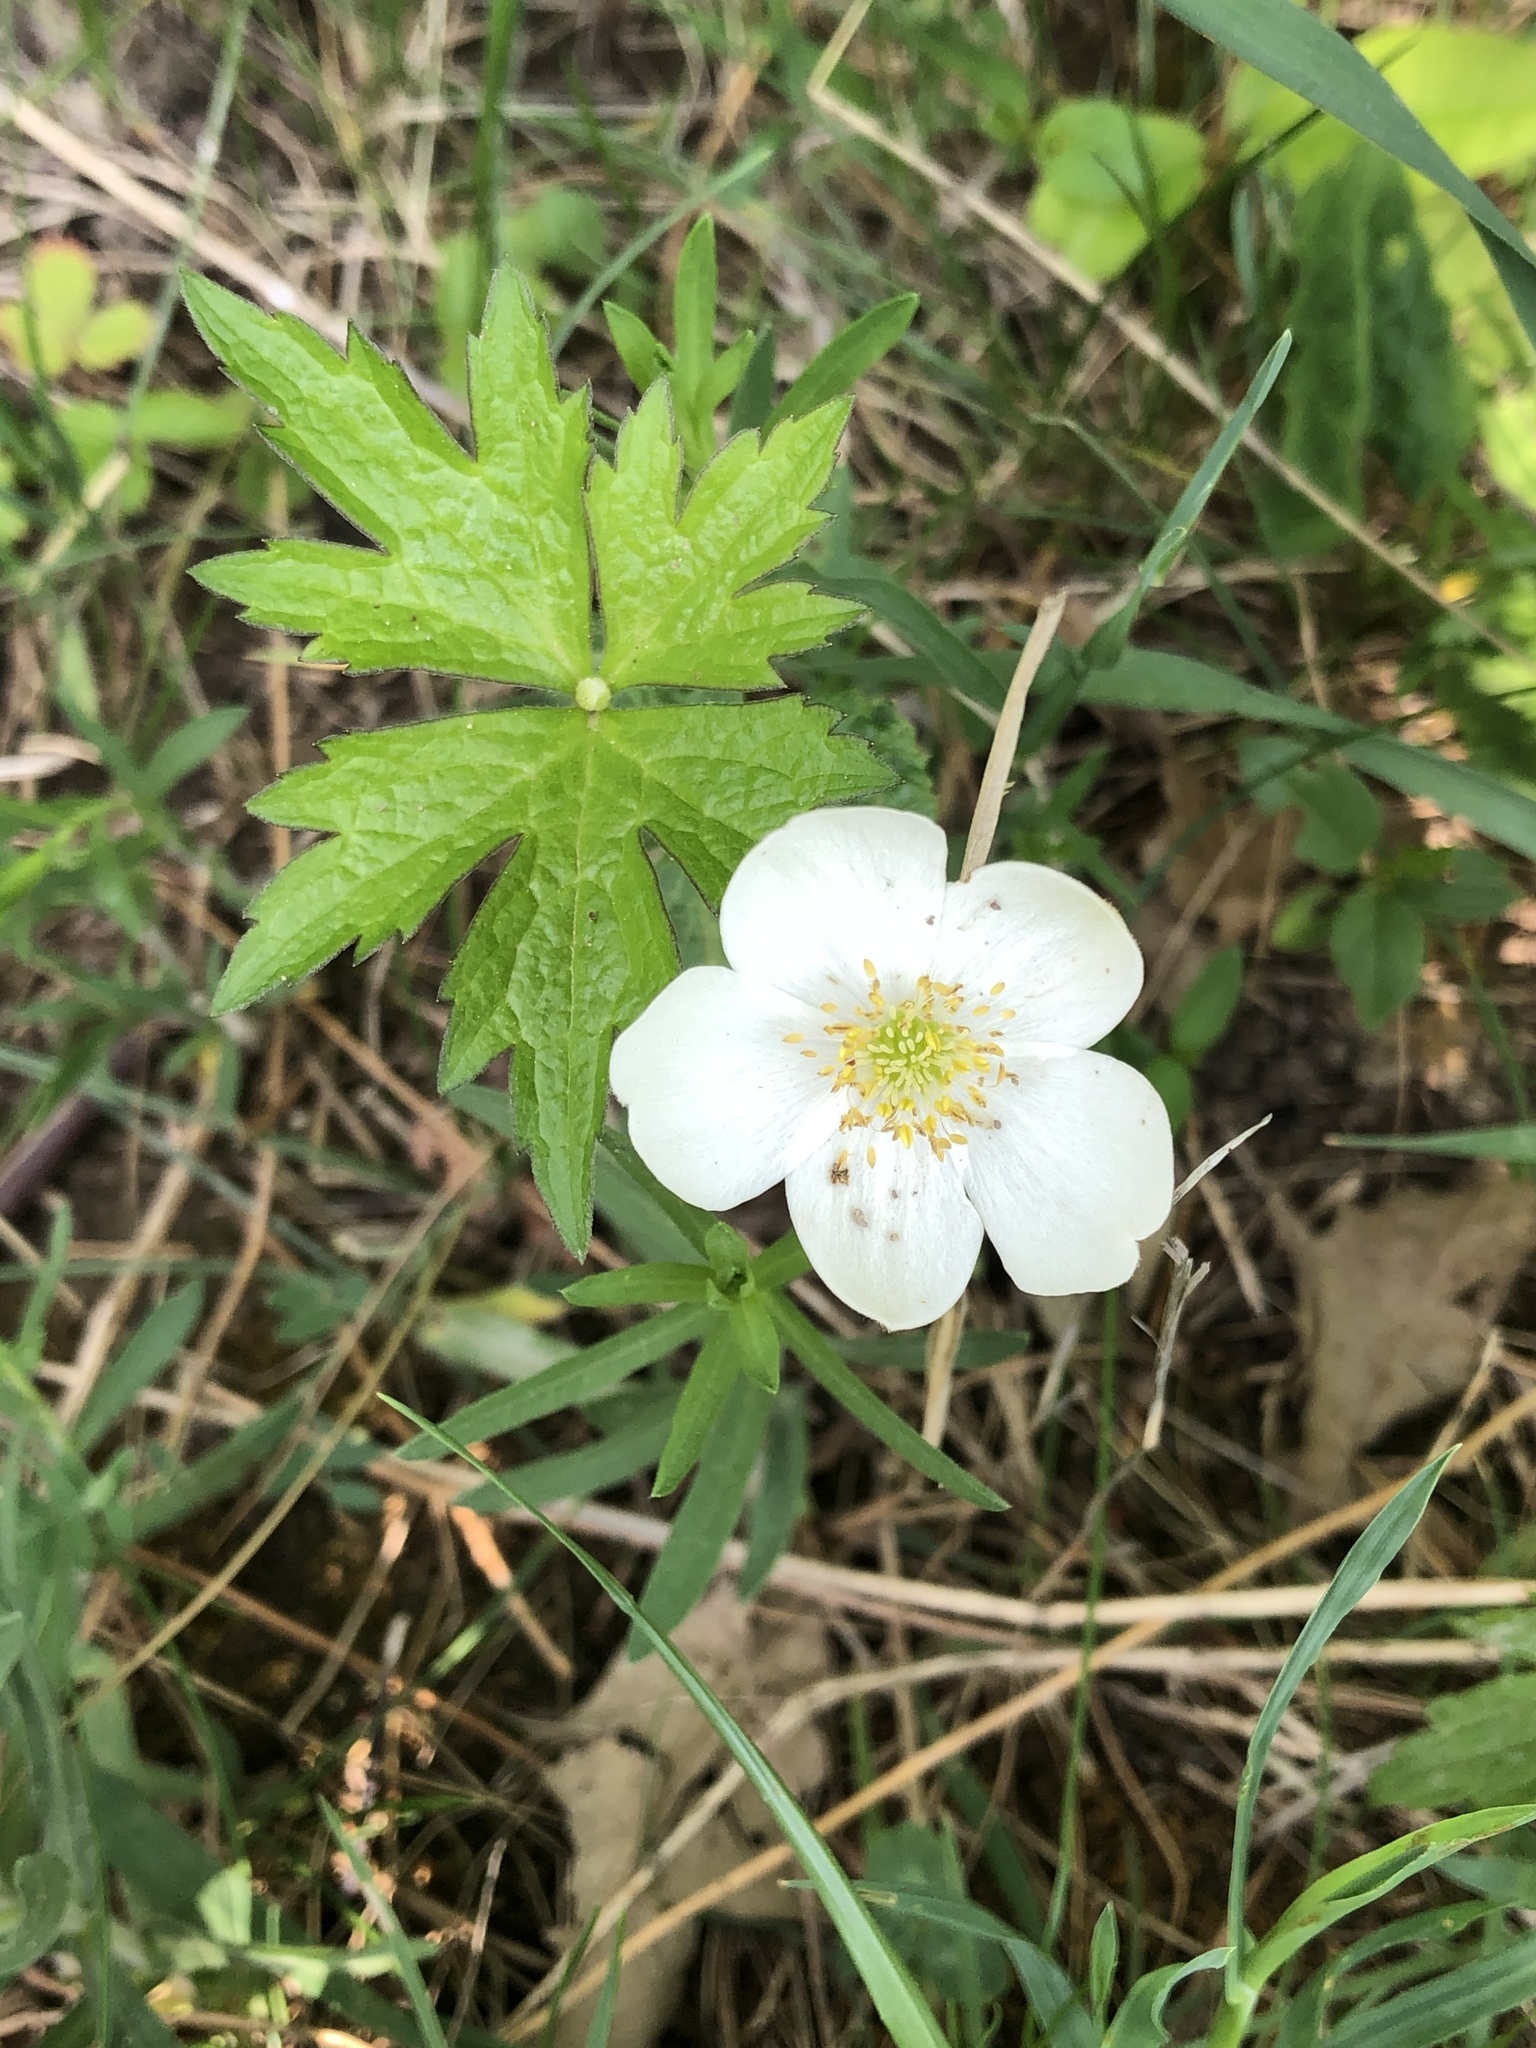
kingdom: Plantae
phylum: Tracheophyta
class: Magnoliopsida
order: Ranunculales
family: Ranunculaceae
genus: Anemonastrum
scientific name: Anemonastrum canadense
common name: Canada anemone
